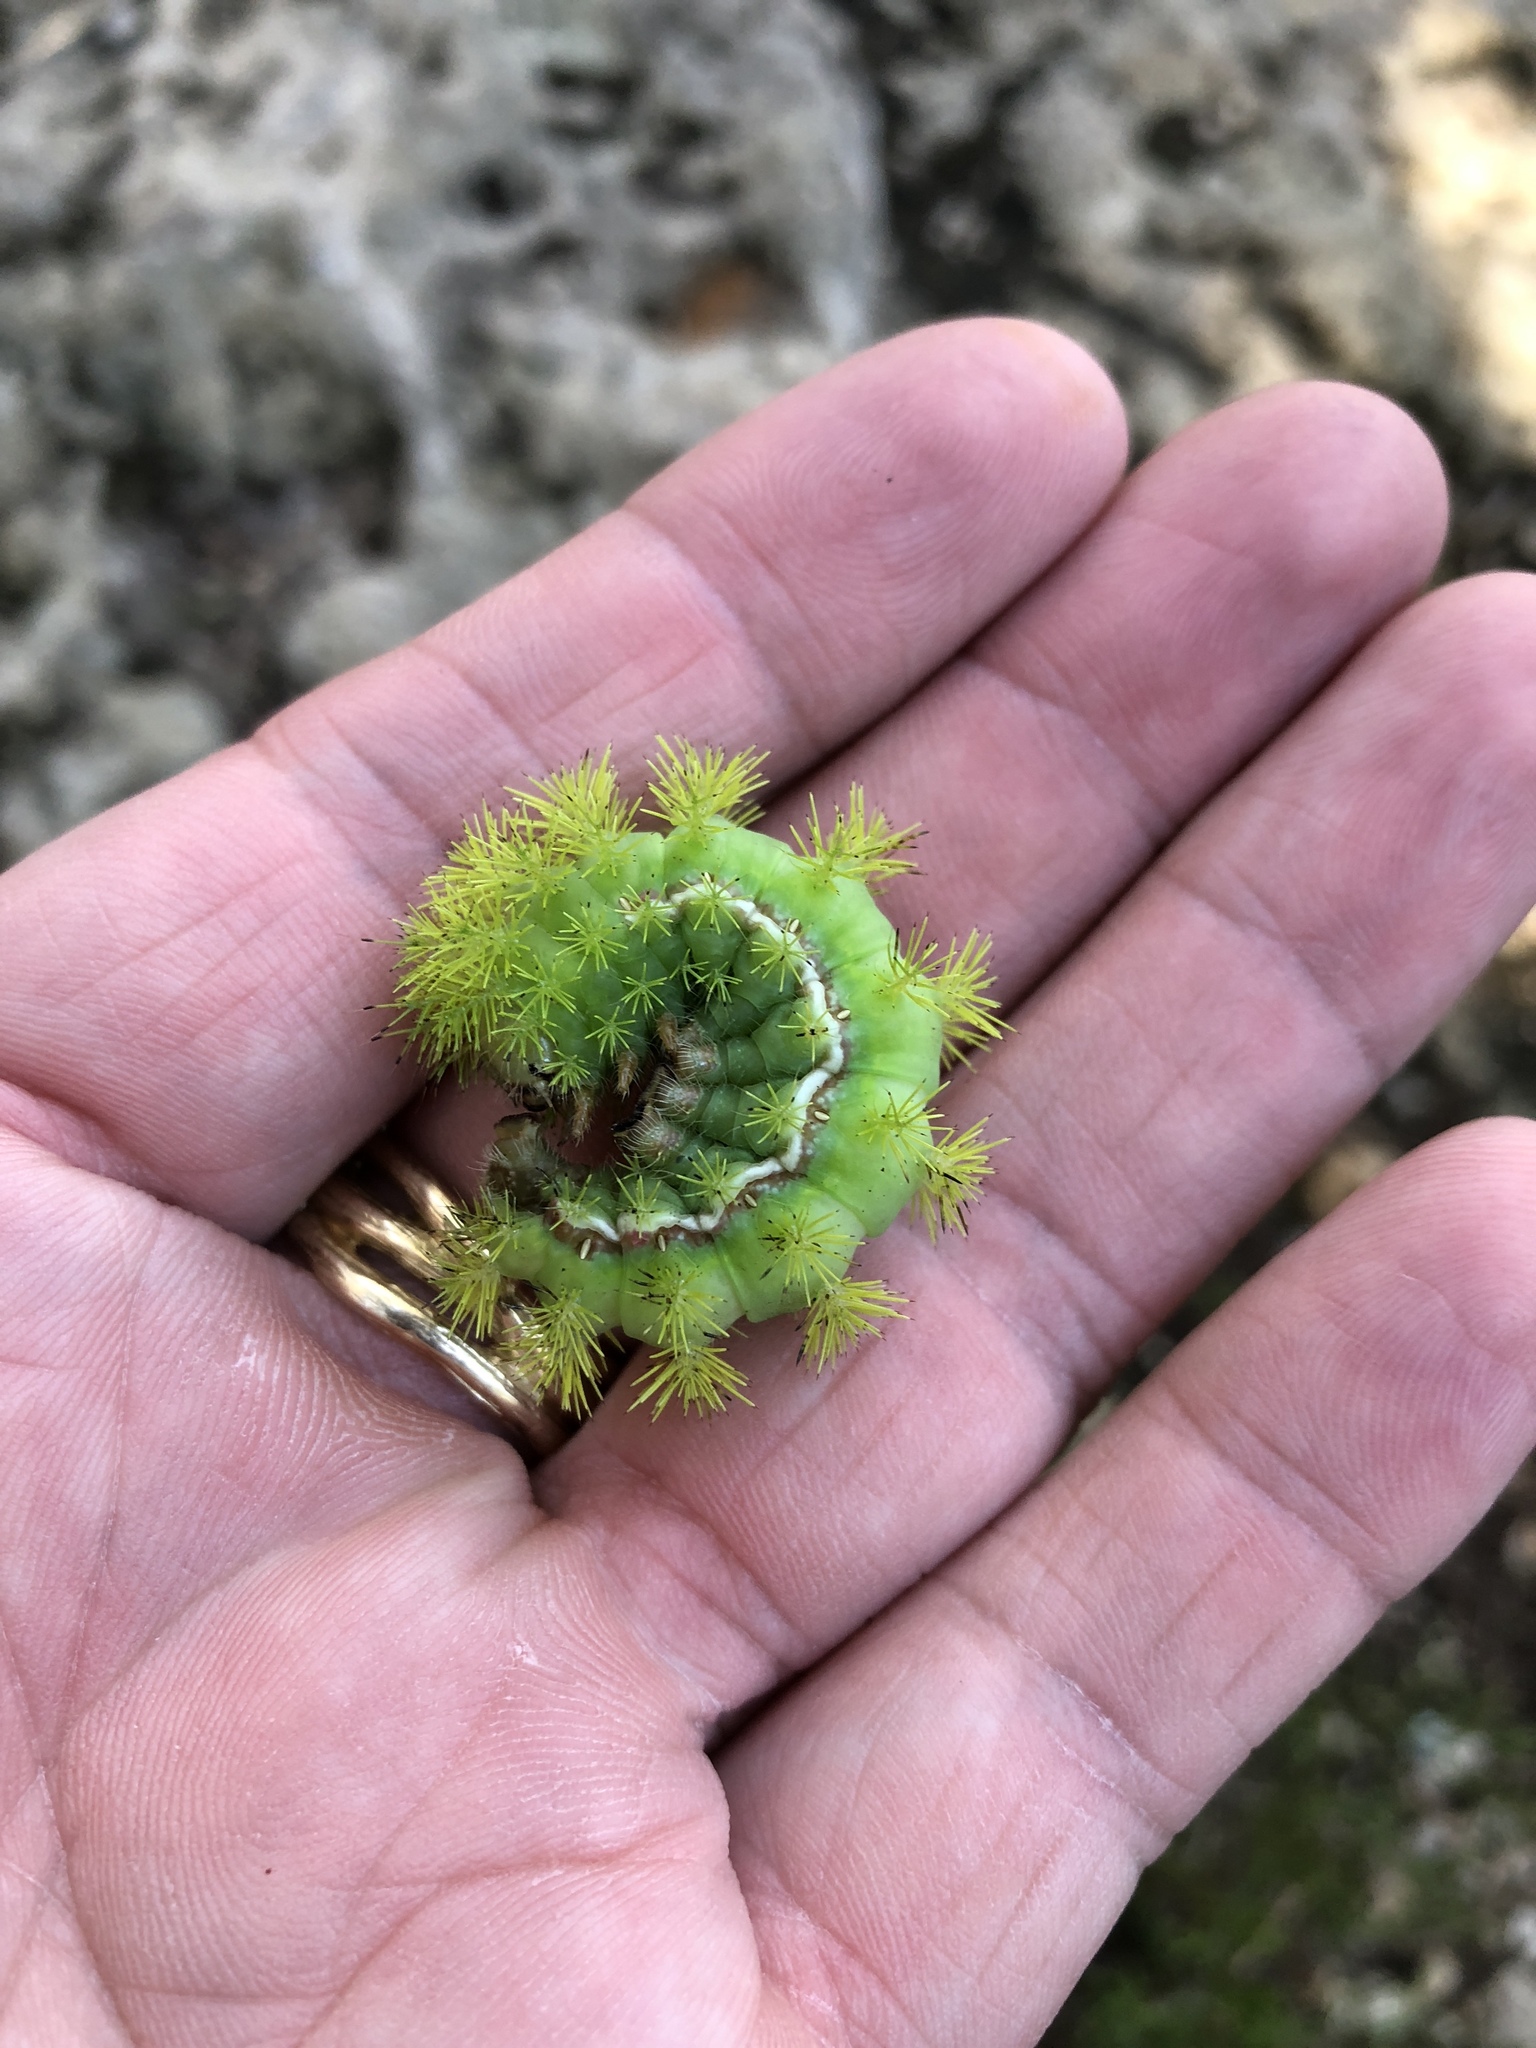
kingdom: Animalia
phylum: Arthropoda
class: Insecta
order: Lepidoptera
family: Saturniidae
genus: Automeris
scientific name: Automeris io
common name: Io moth
